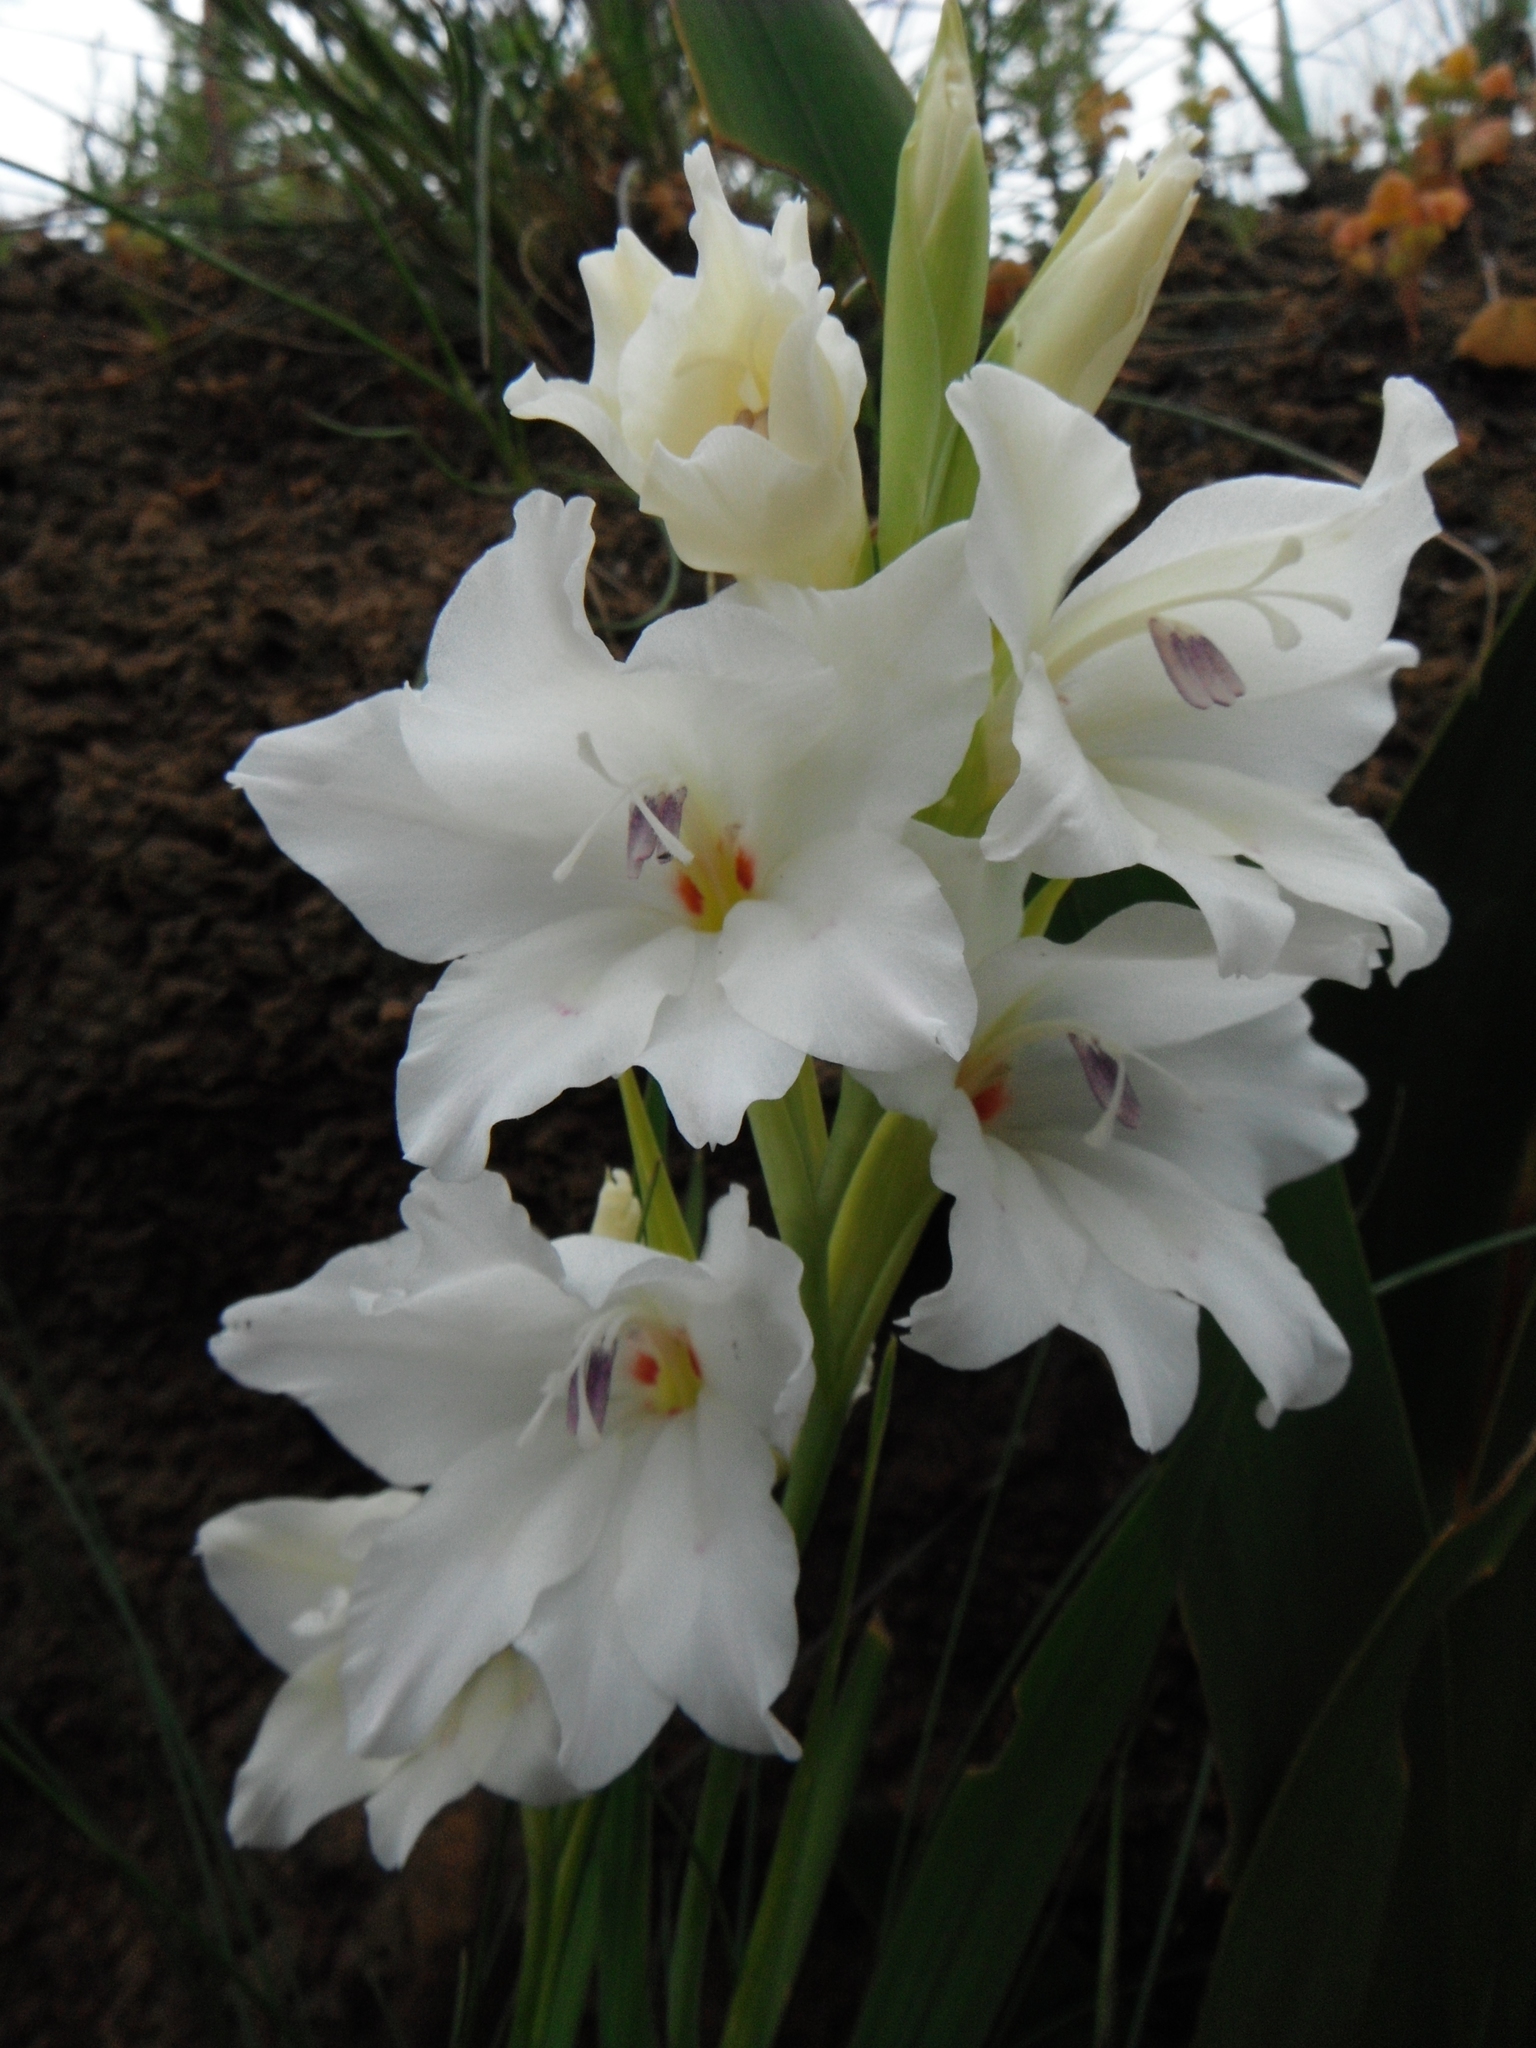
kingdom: Plantae
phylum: Tracheophyta
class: Liliopsida
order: Asparagales
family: Iridaceae
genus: Gladiolus
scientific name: Gladiolus carneus
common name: Painted-lady
